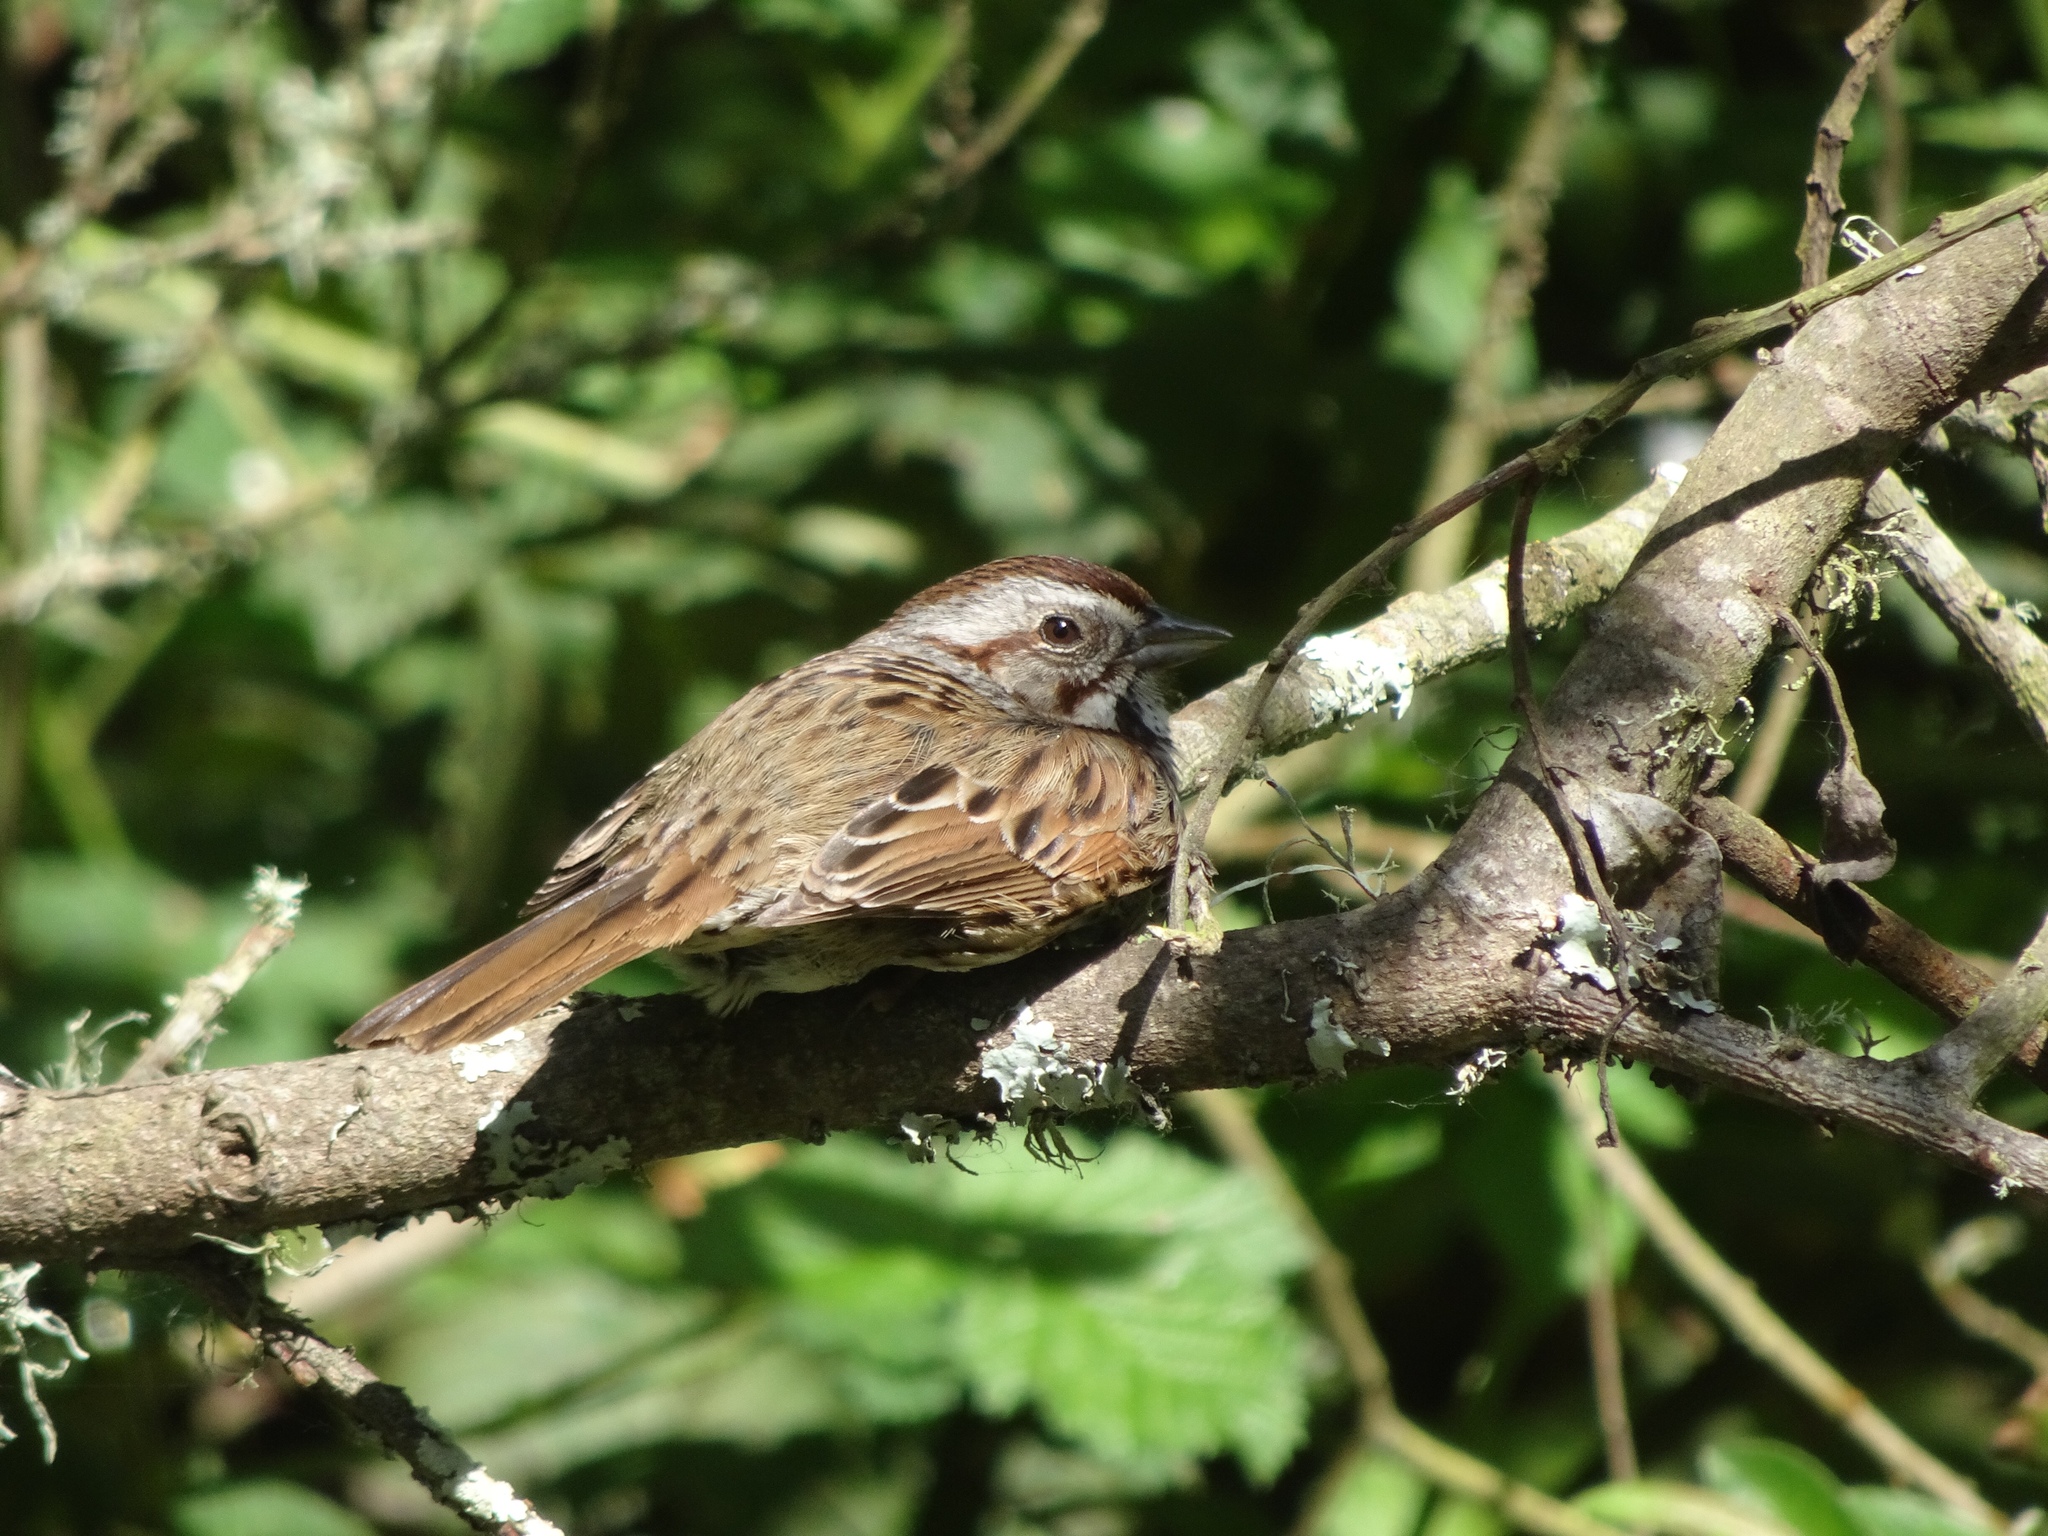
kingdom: Animalia
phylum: Chordata
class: Aves
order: Passeriformes
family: Passerellidae
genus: Melospiza
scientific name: Melospiza melodia
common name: Song sparrow
